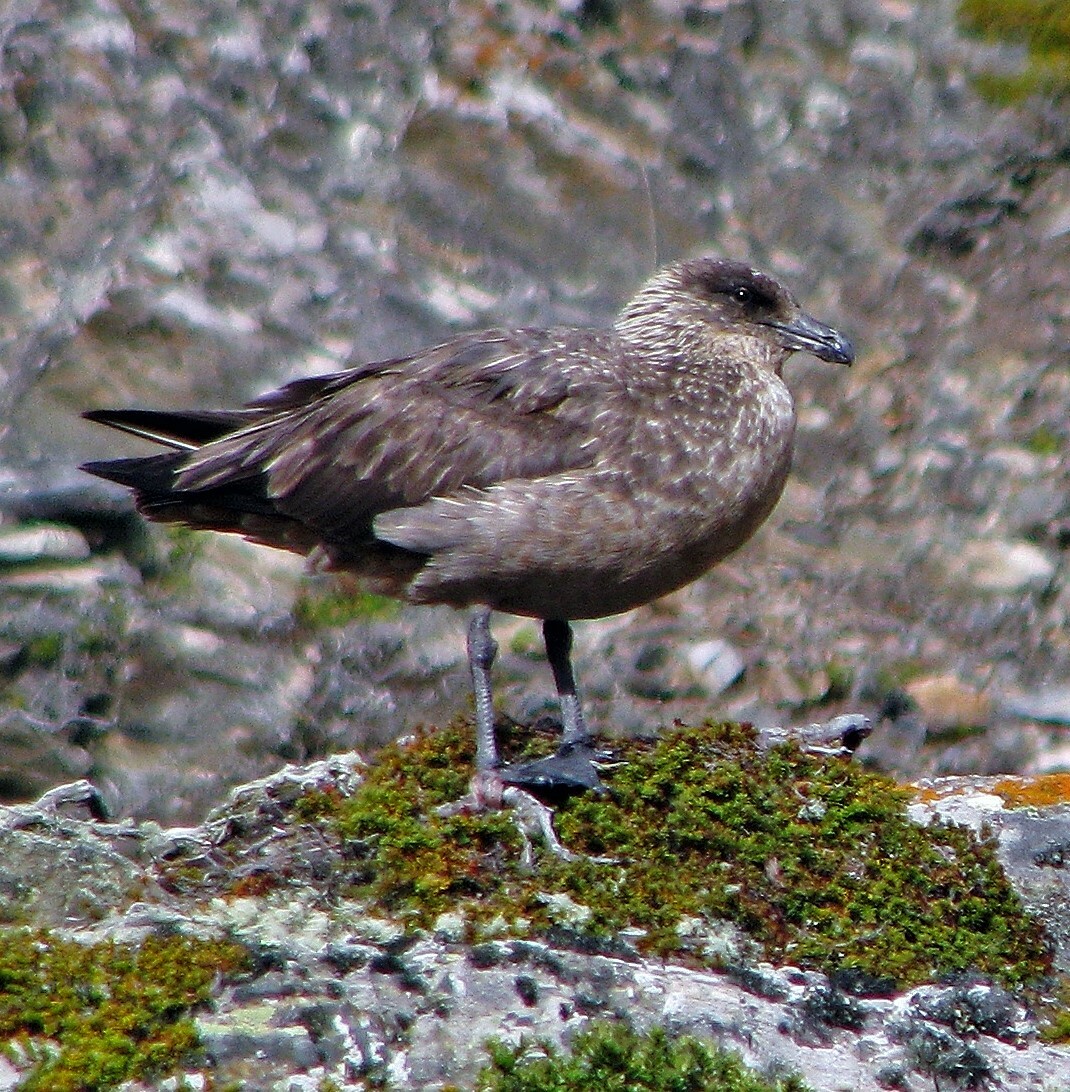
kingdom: Animalia
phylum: Chordata
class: Aves
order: Charadriiformes
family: Stercorariidae
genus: Stercorarius
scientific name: Stercorarius chilensis
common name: Chilean skua
